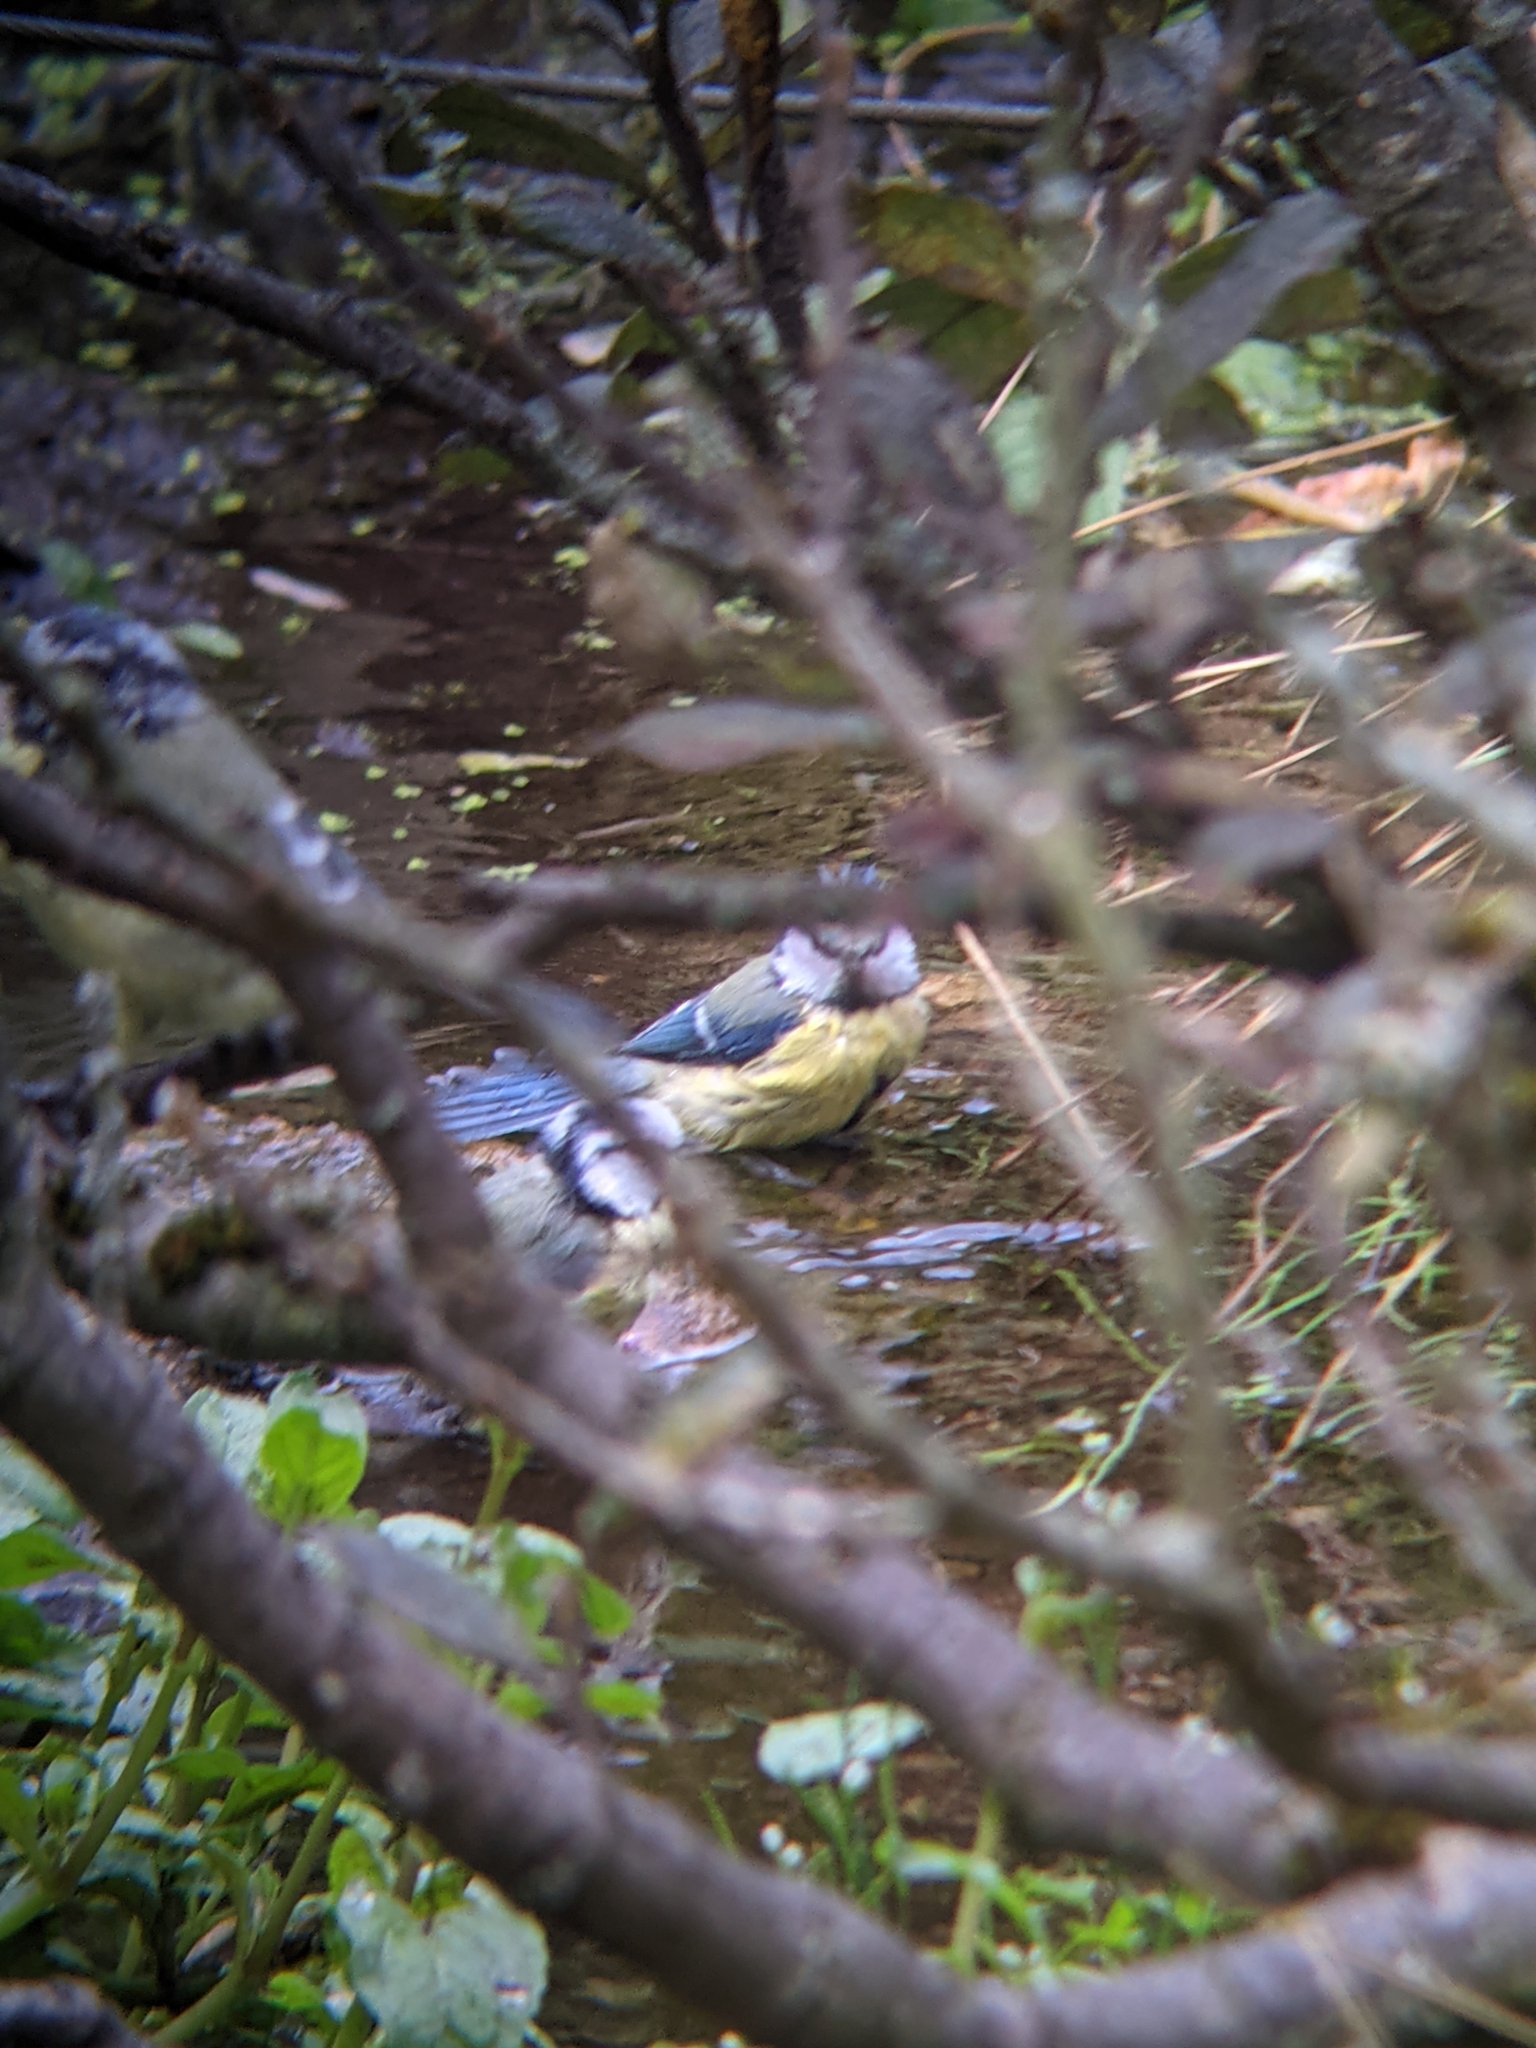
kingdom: Animalia
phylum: Chordata
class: Aves
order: Passeriformes
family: Paridae
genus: Cyanistes
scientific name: Cyanistes caeruleus
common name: Eurasian blue tit
